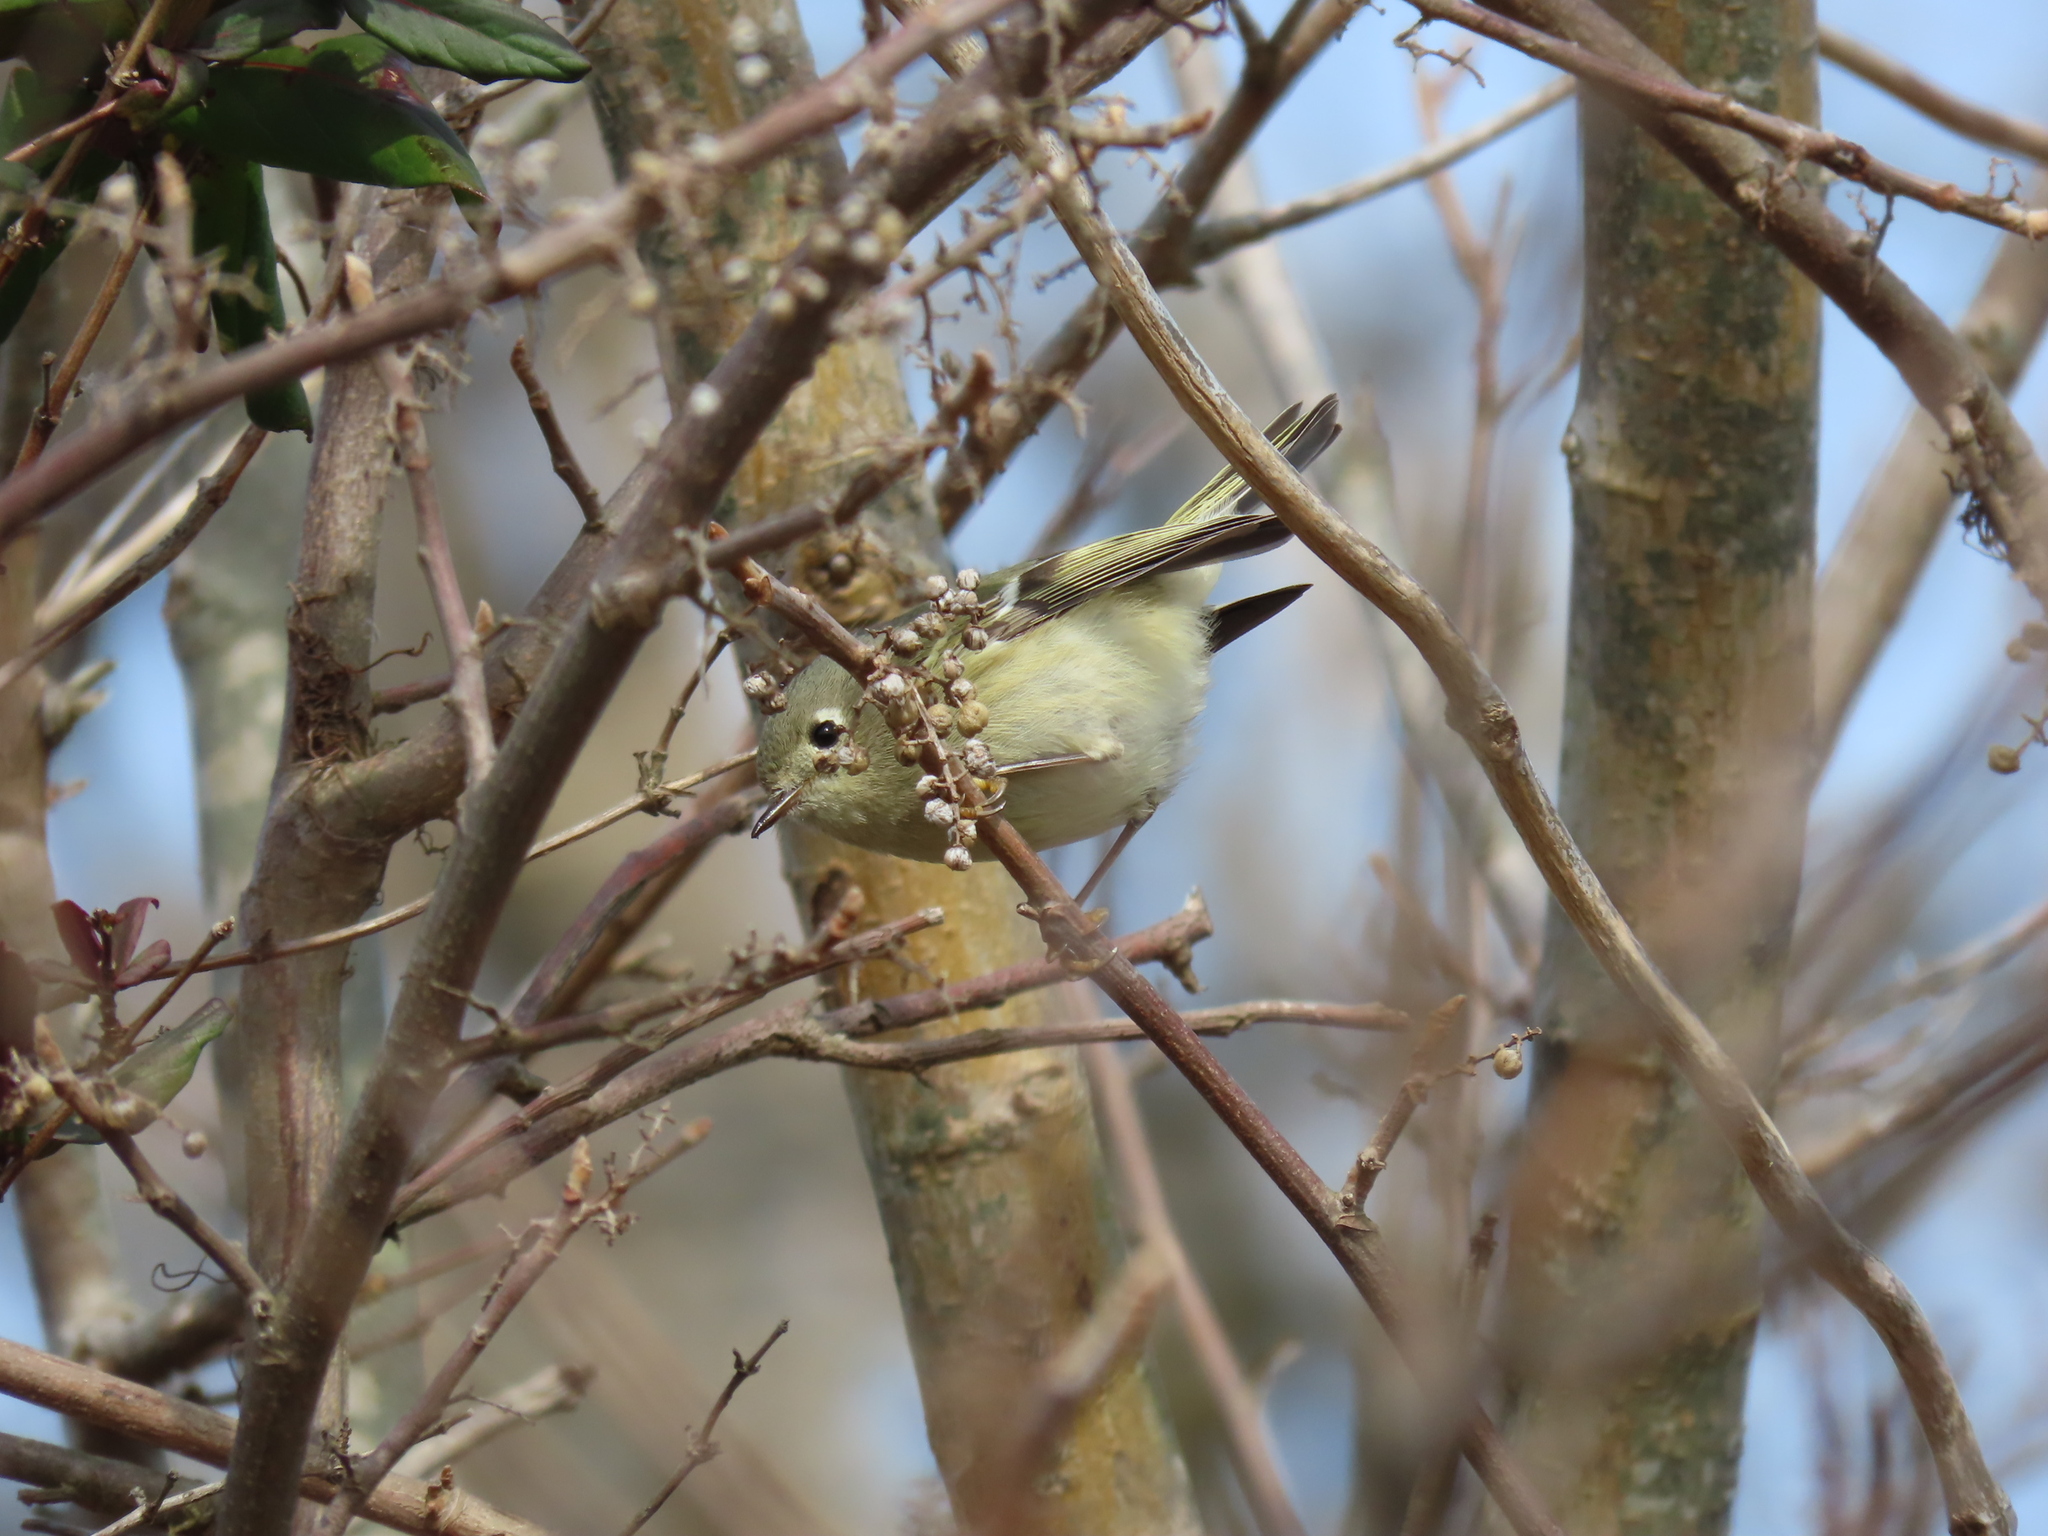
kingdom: Animalia
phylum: Chordata
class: Aves
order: Passeriformes
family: Regulidae
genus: Regulus
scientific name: Regulus calendula
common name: Ruby-crowned kinglet
